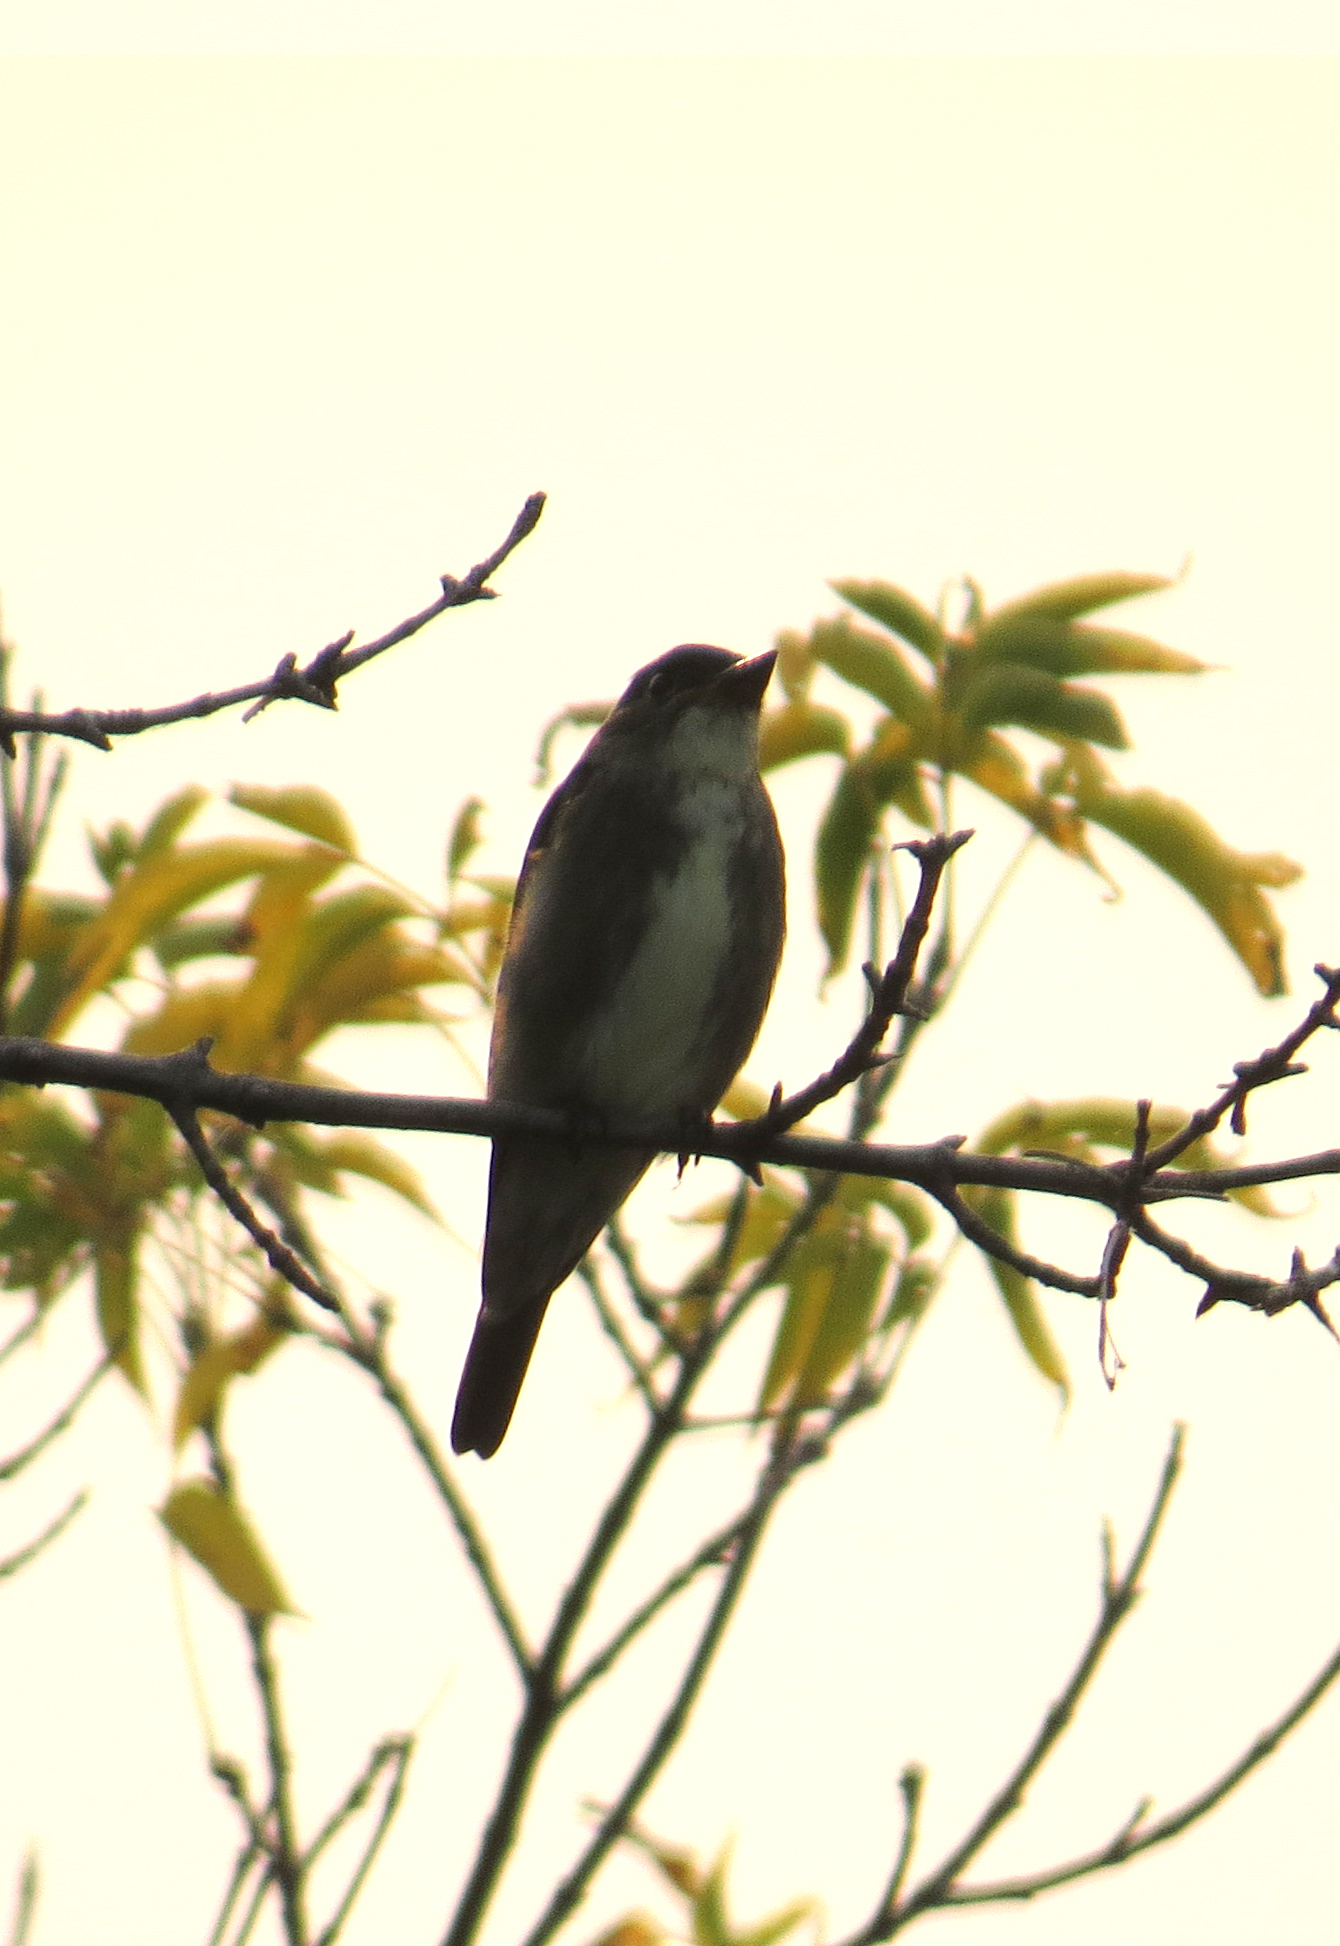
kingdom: Animalia
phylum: Chordata
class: Aves
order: Passeriformes
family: Tyrannidae
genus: Contopus
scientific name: Contopus cooperi
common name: Olive-sided flycatcher
